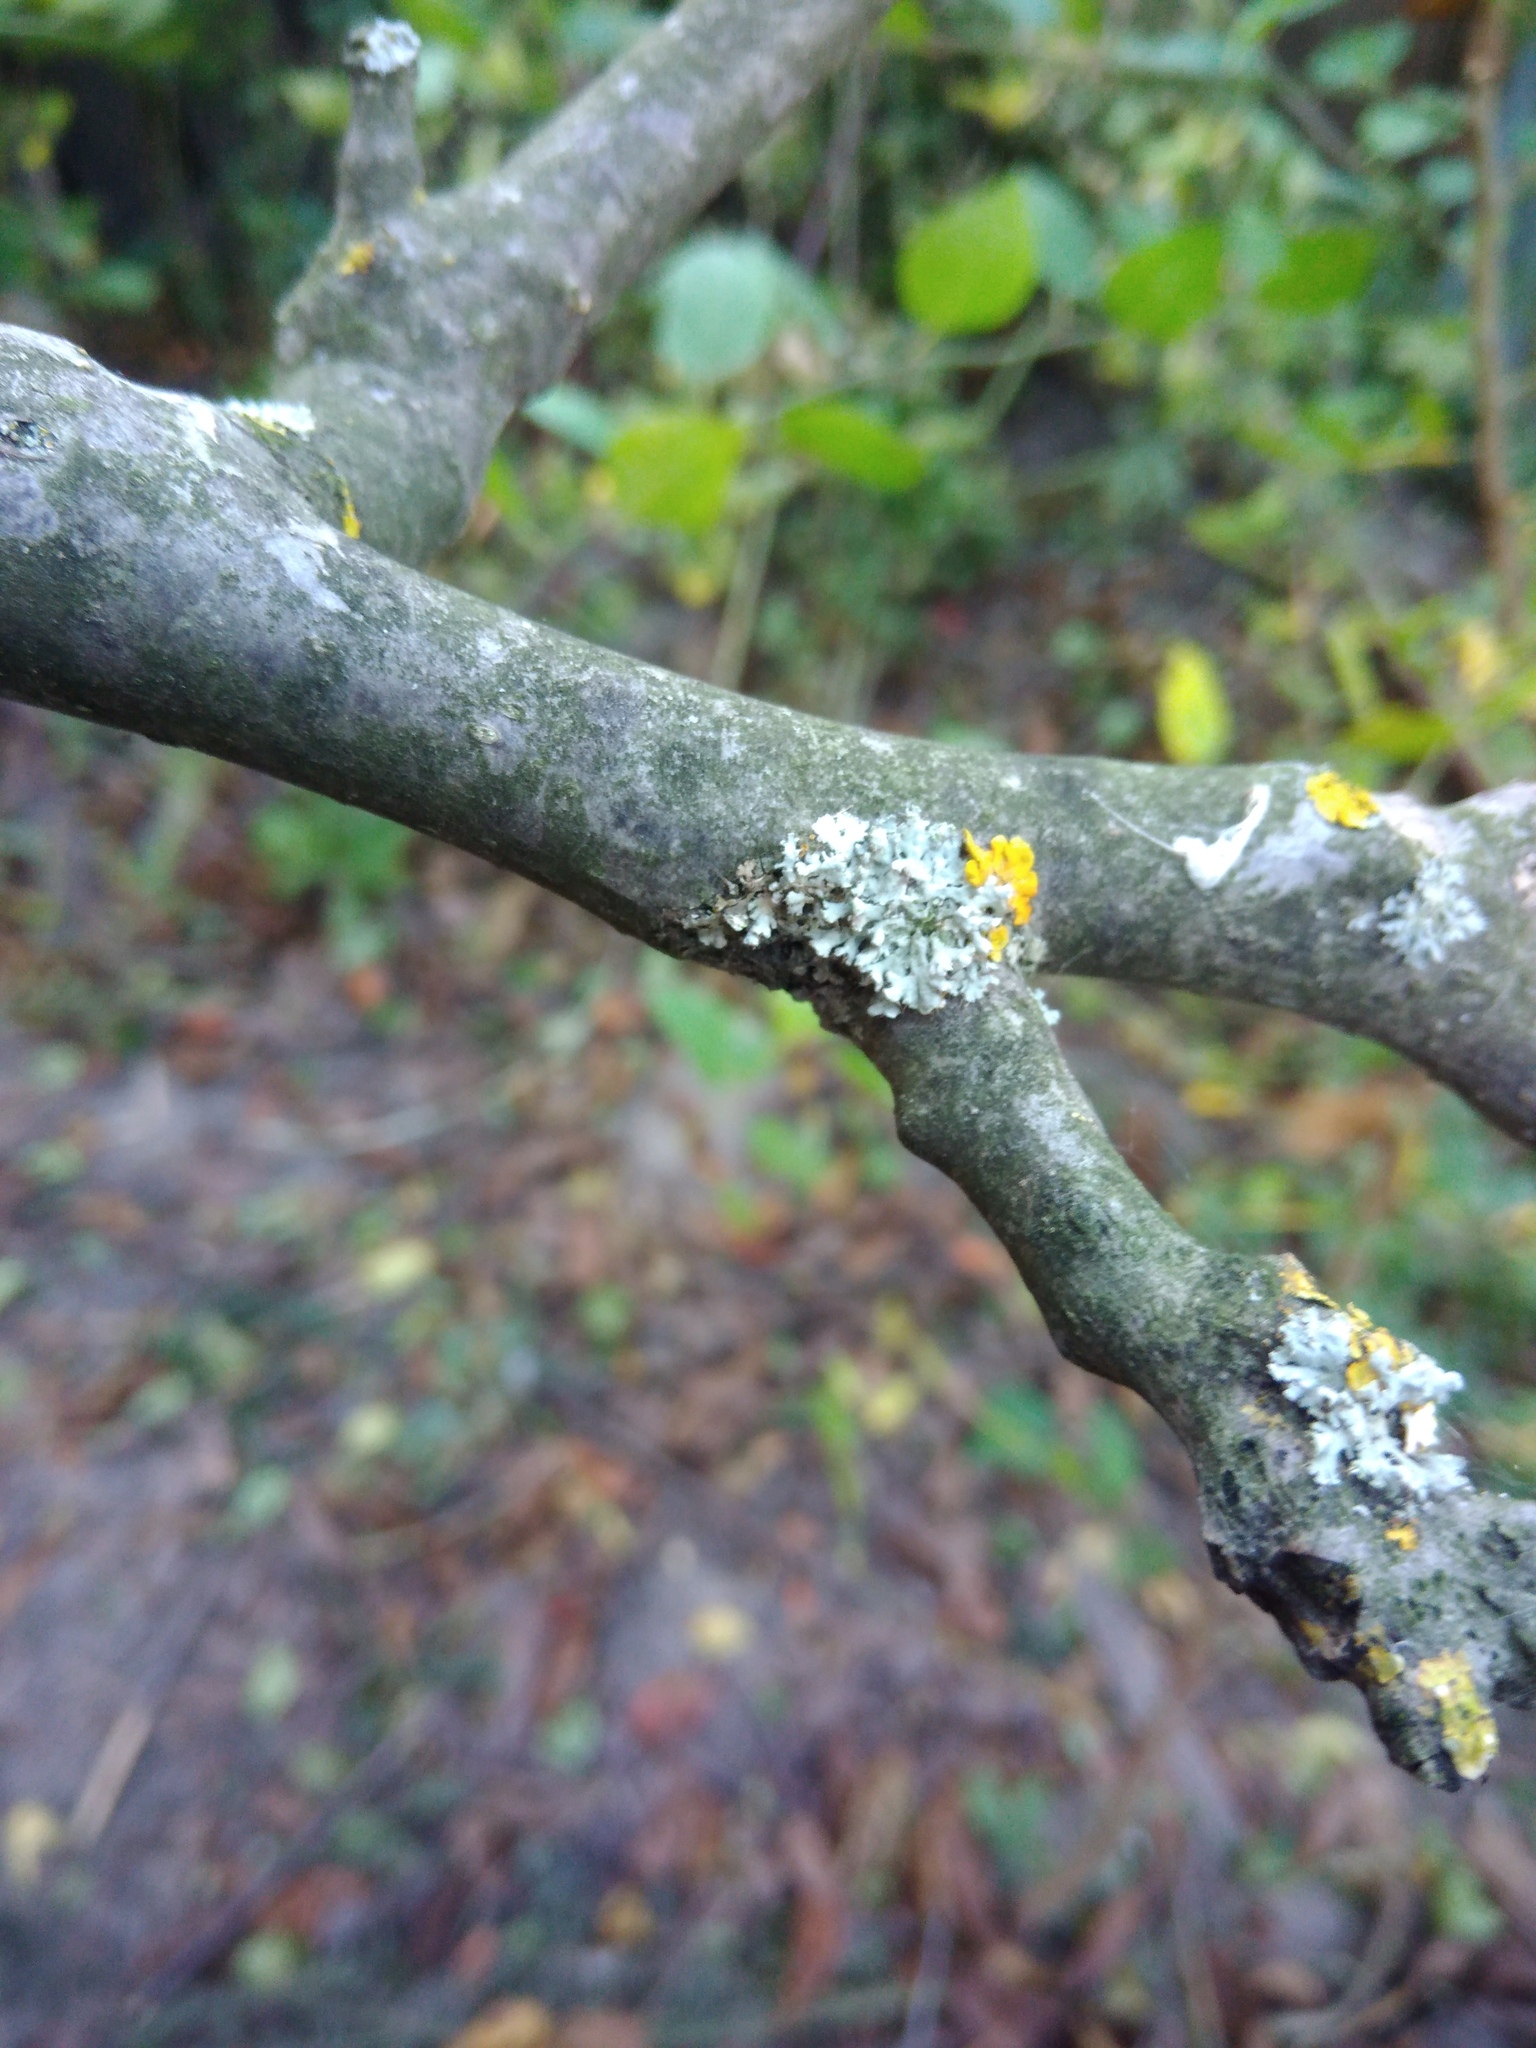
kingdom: Fungi
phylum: Ascomycota
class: Lecanoromycetes
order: Caliciales
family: Physciaceae
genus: Physcia
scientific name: Physcia adscendens
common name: Hooded rosette lichen
